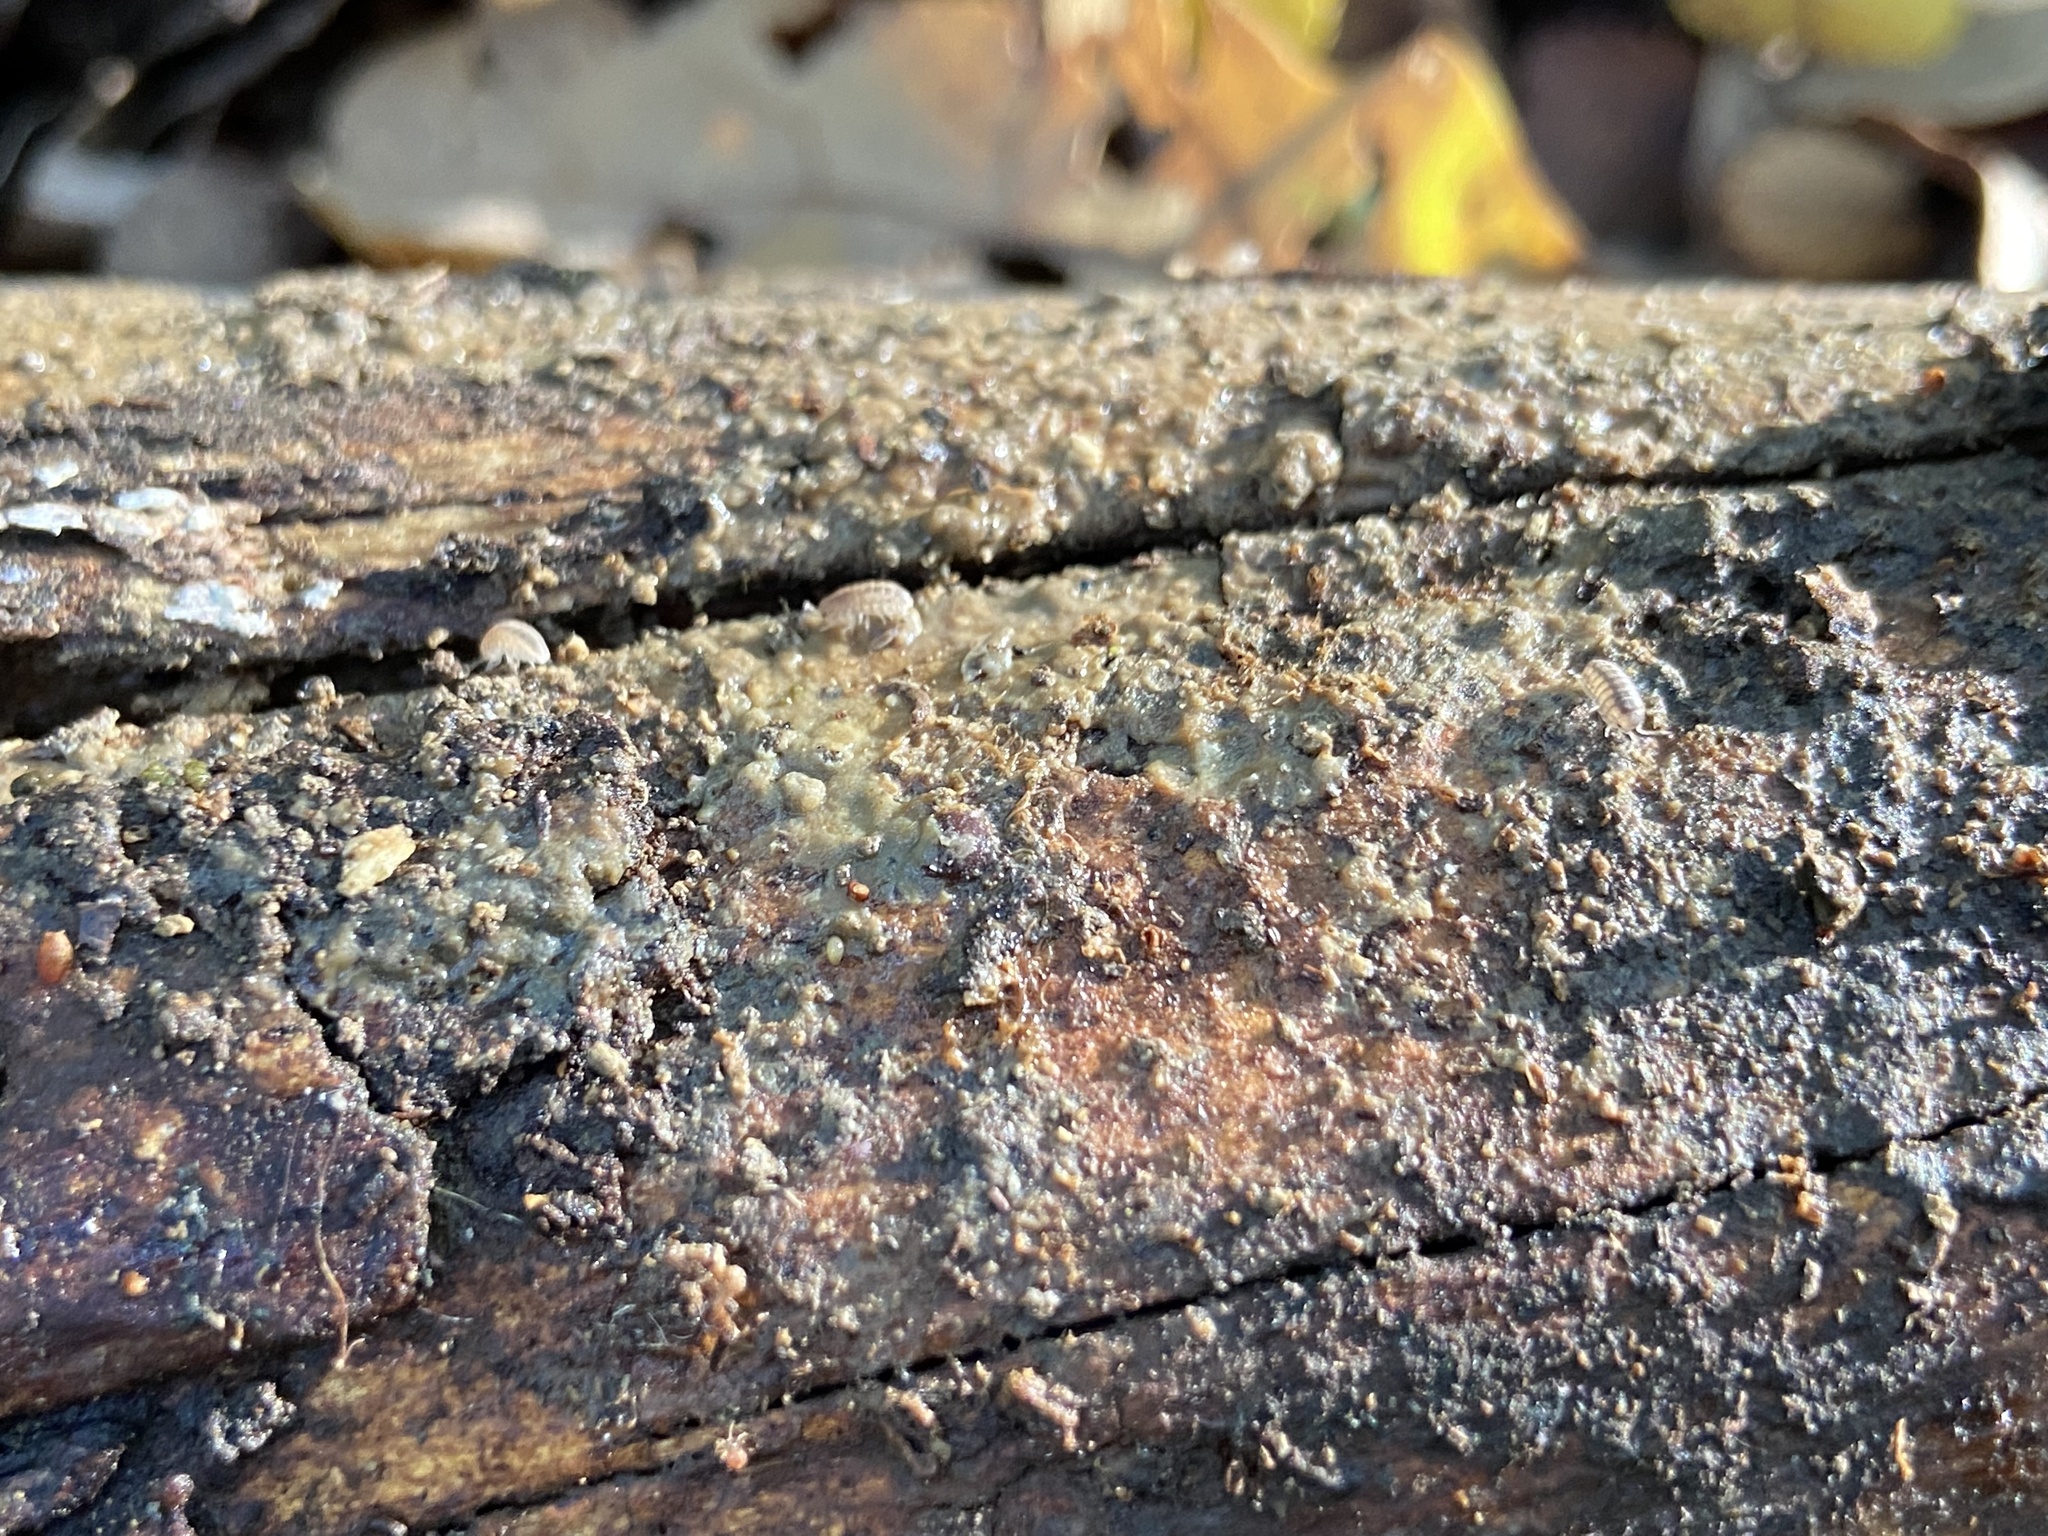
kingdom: Animalia
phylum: Arthropoda
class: Malacostraca
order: Isopoda
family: Armadillidiidae
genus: Armadillidium
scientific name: Armadillidium vulgare
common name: Common pill woodlouse
